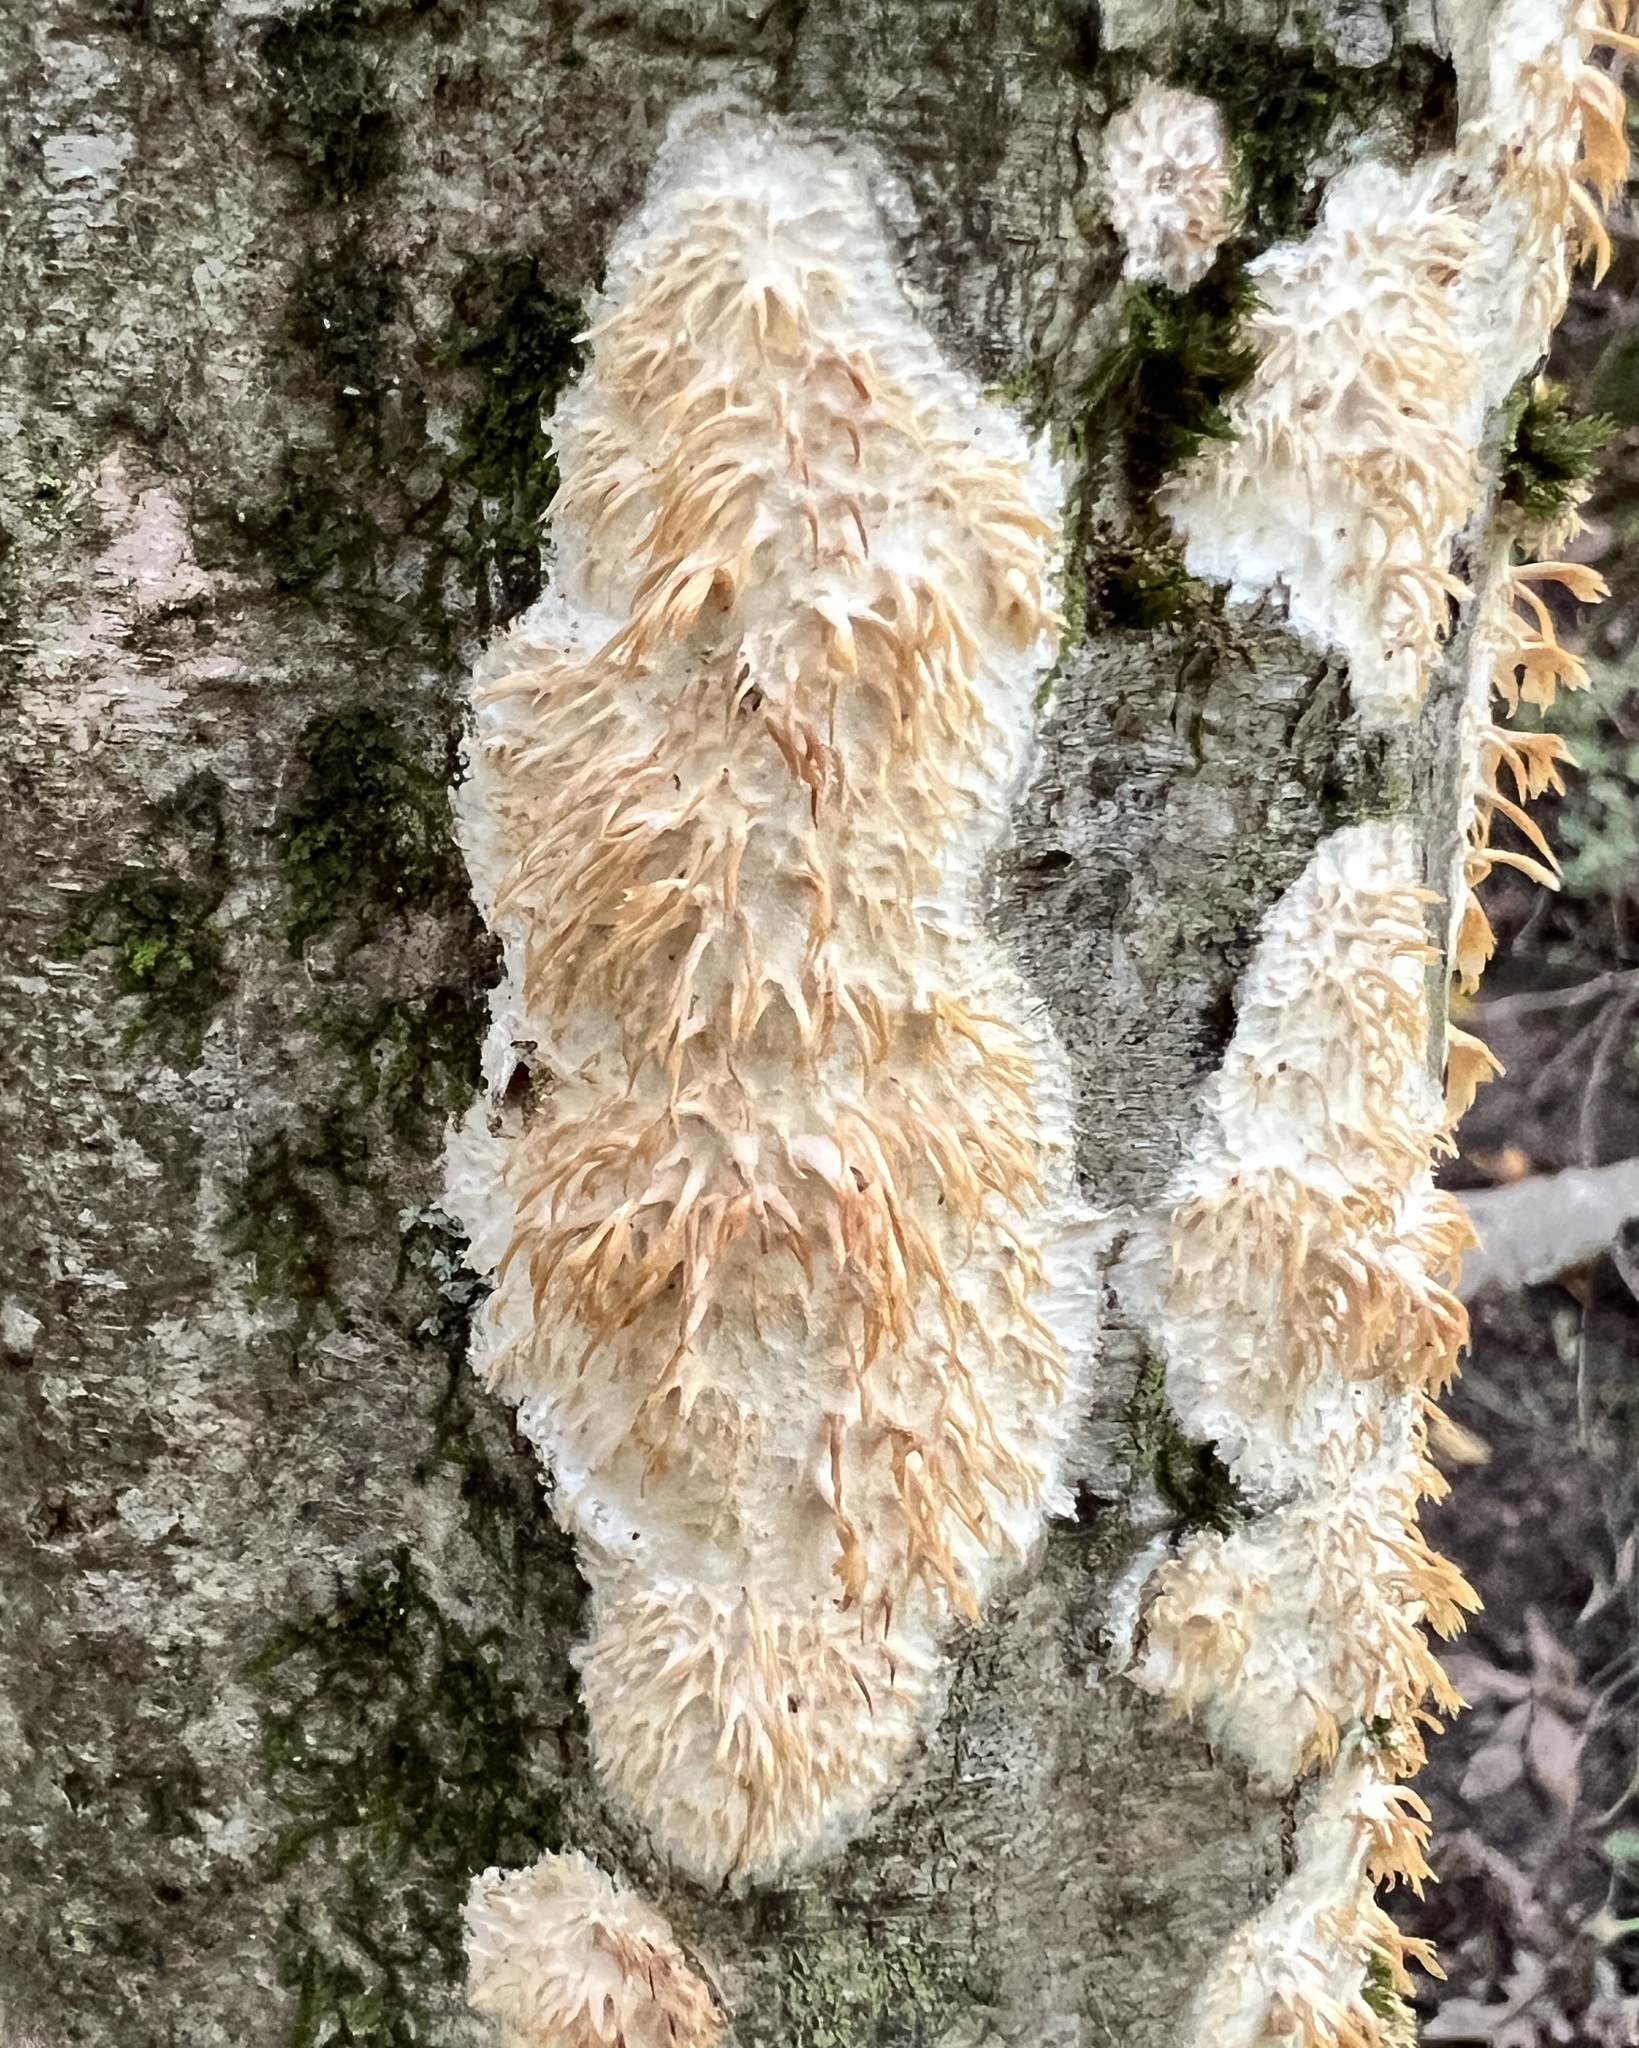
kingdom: Fungi
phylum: Basidiomycota
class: Agaricomycetes
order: Agaricales
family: Radulomycetaceae
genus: Radulomyces
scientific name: Radulomyces copelandii
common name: Asian beauty
